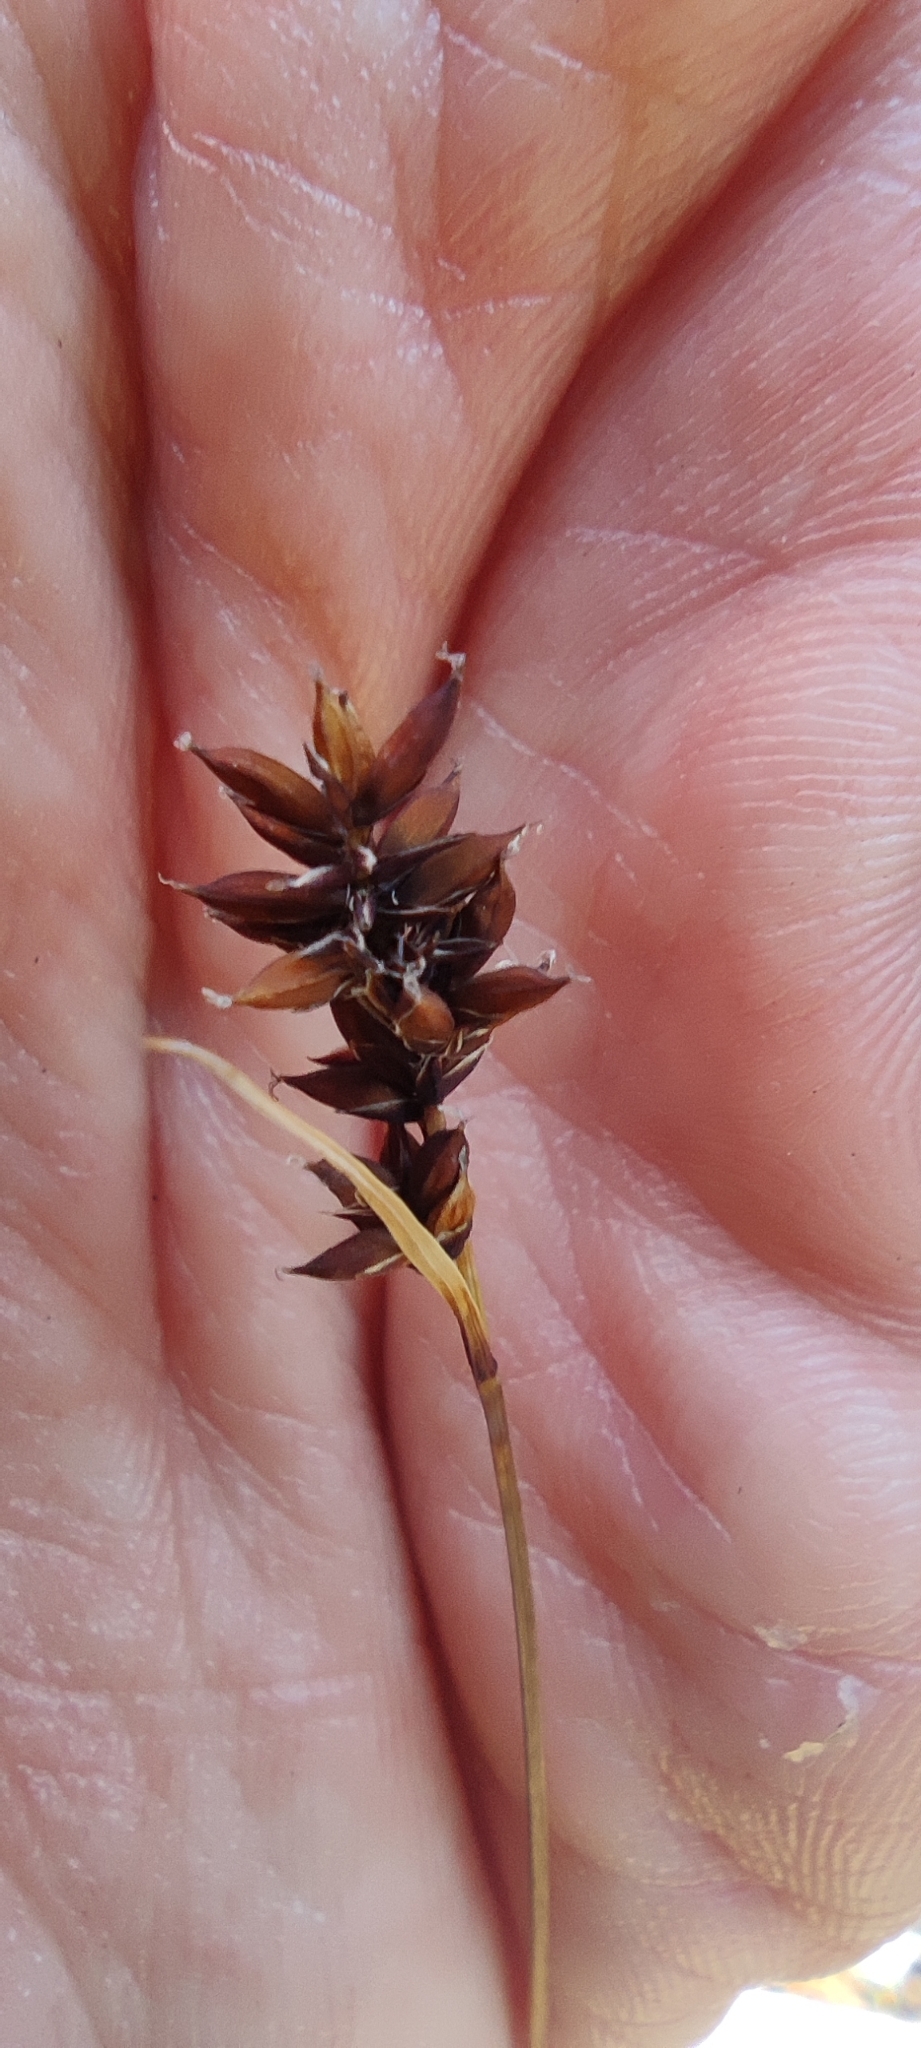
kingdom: Plantae
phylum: Tracheophyta
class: Liliopsida
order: Poales
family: Cyperaceae
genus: Carex
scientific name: Carex media
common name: Alpine sedge
